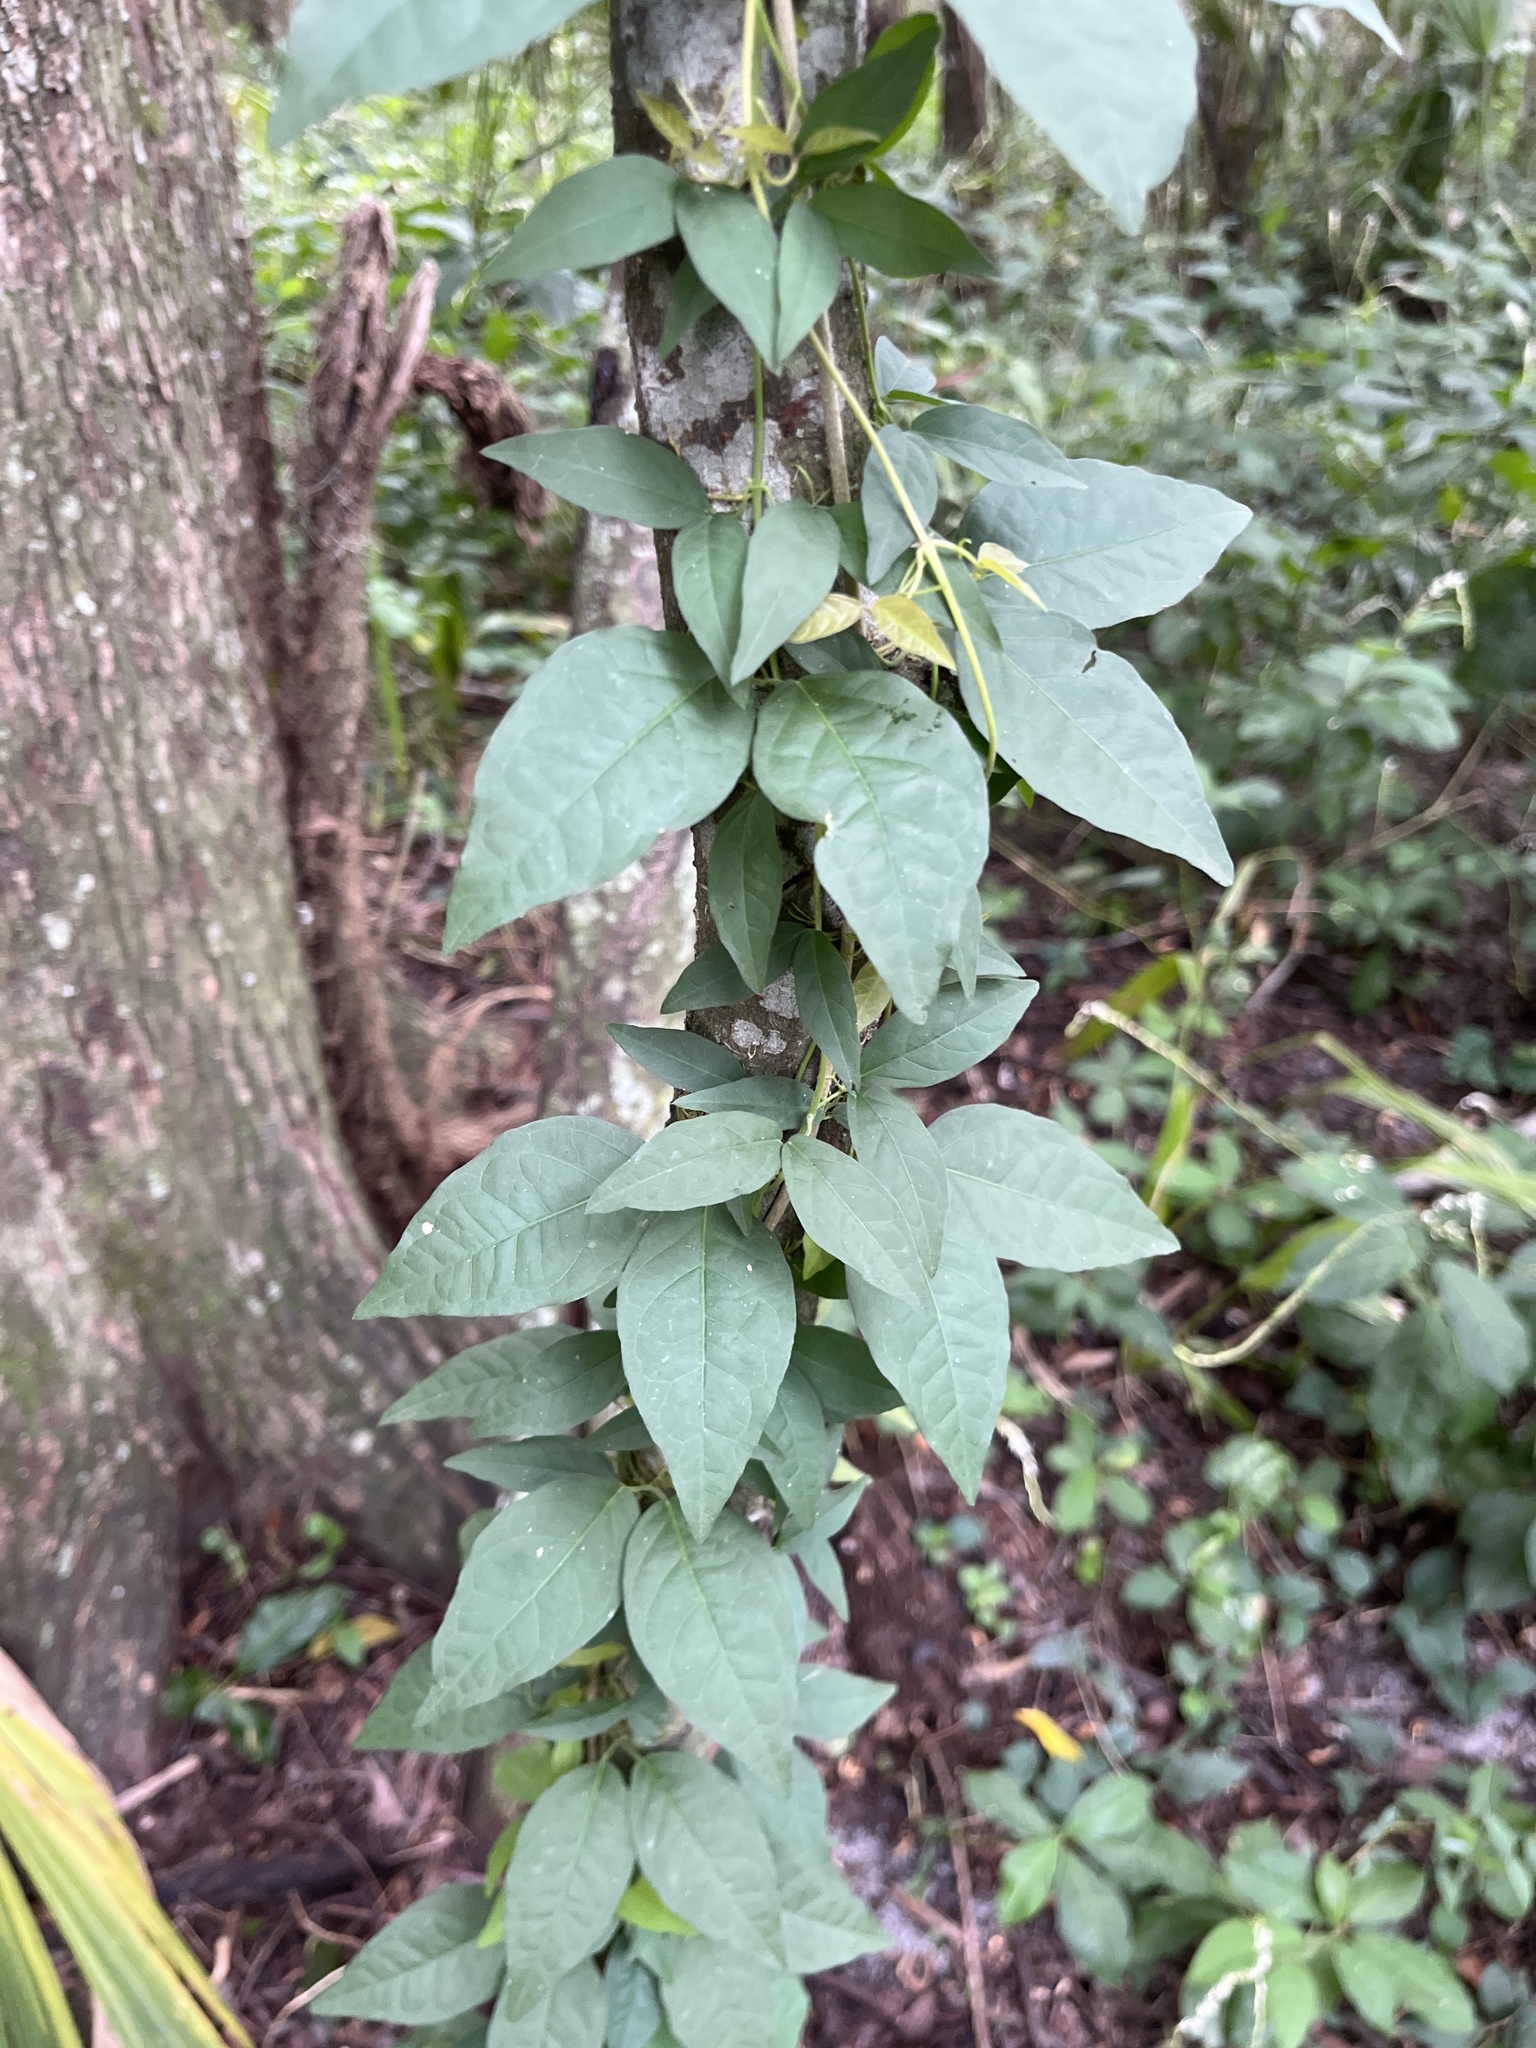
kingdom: Plantae
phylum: Tracheophyta
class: Magnoliopsida
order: Lamiales
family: Bignoniaceae
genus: Dolichandra
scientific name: Dolichandra unguis-cati
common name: Catclaw vine
